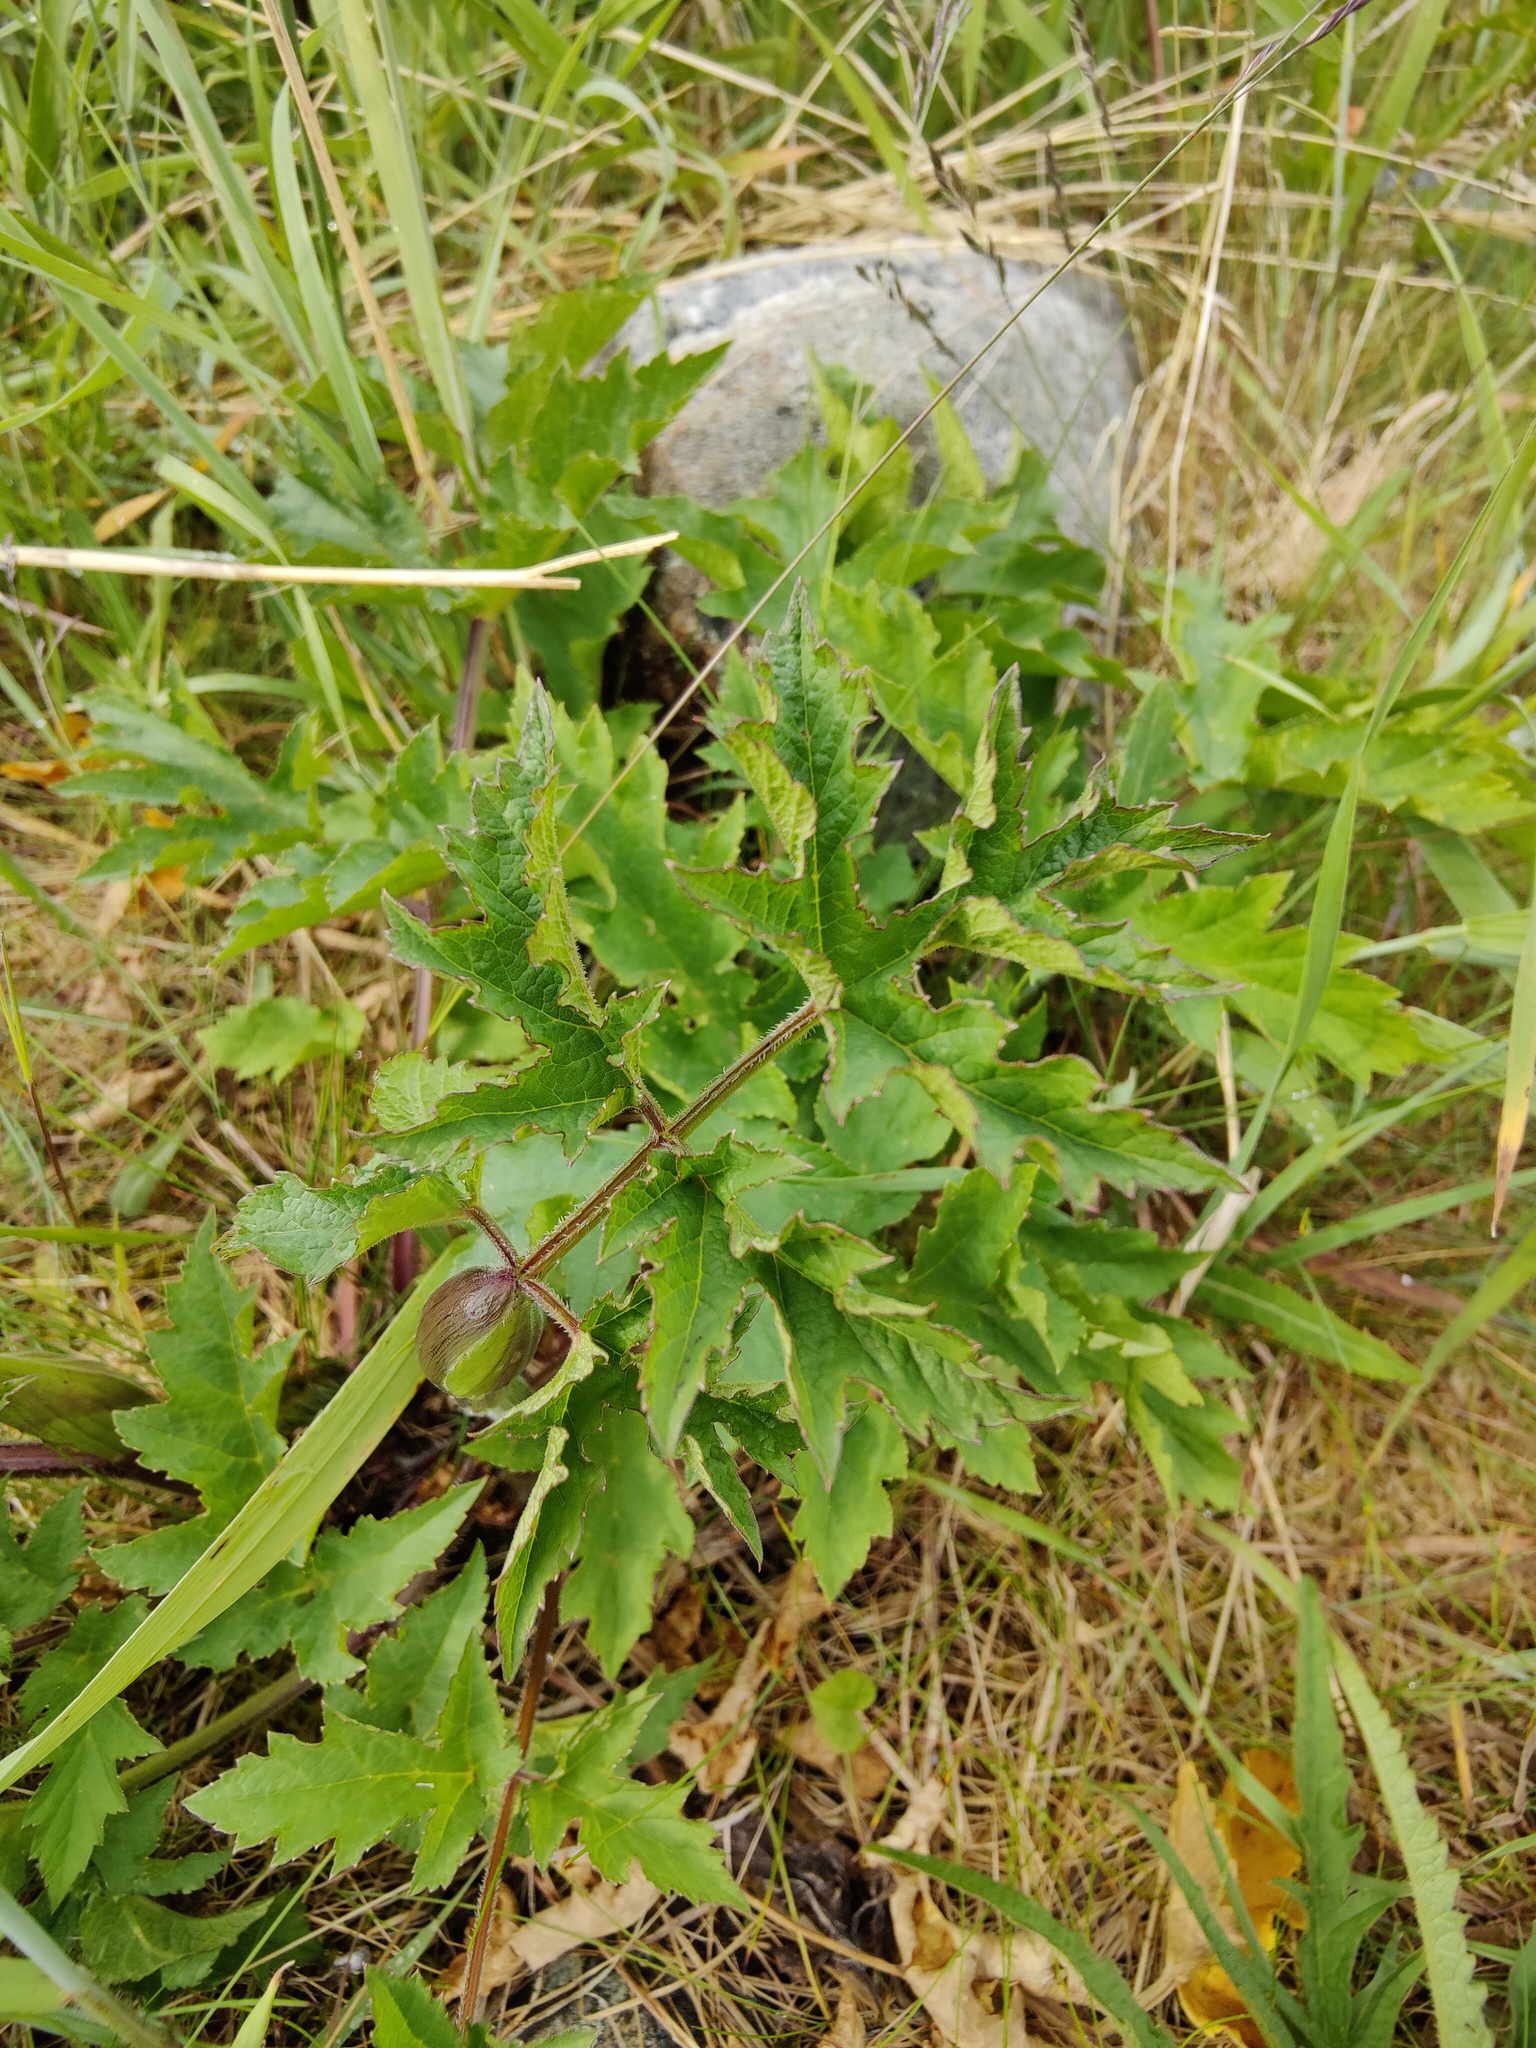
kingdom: Plantae
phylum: Tracheophyta
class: Magnoliopsida
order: Apiales
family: Apiaceae
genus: Heracleum
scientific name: Heracleum sphondylium
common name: Hogweed
